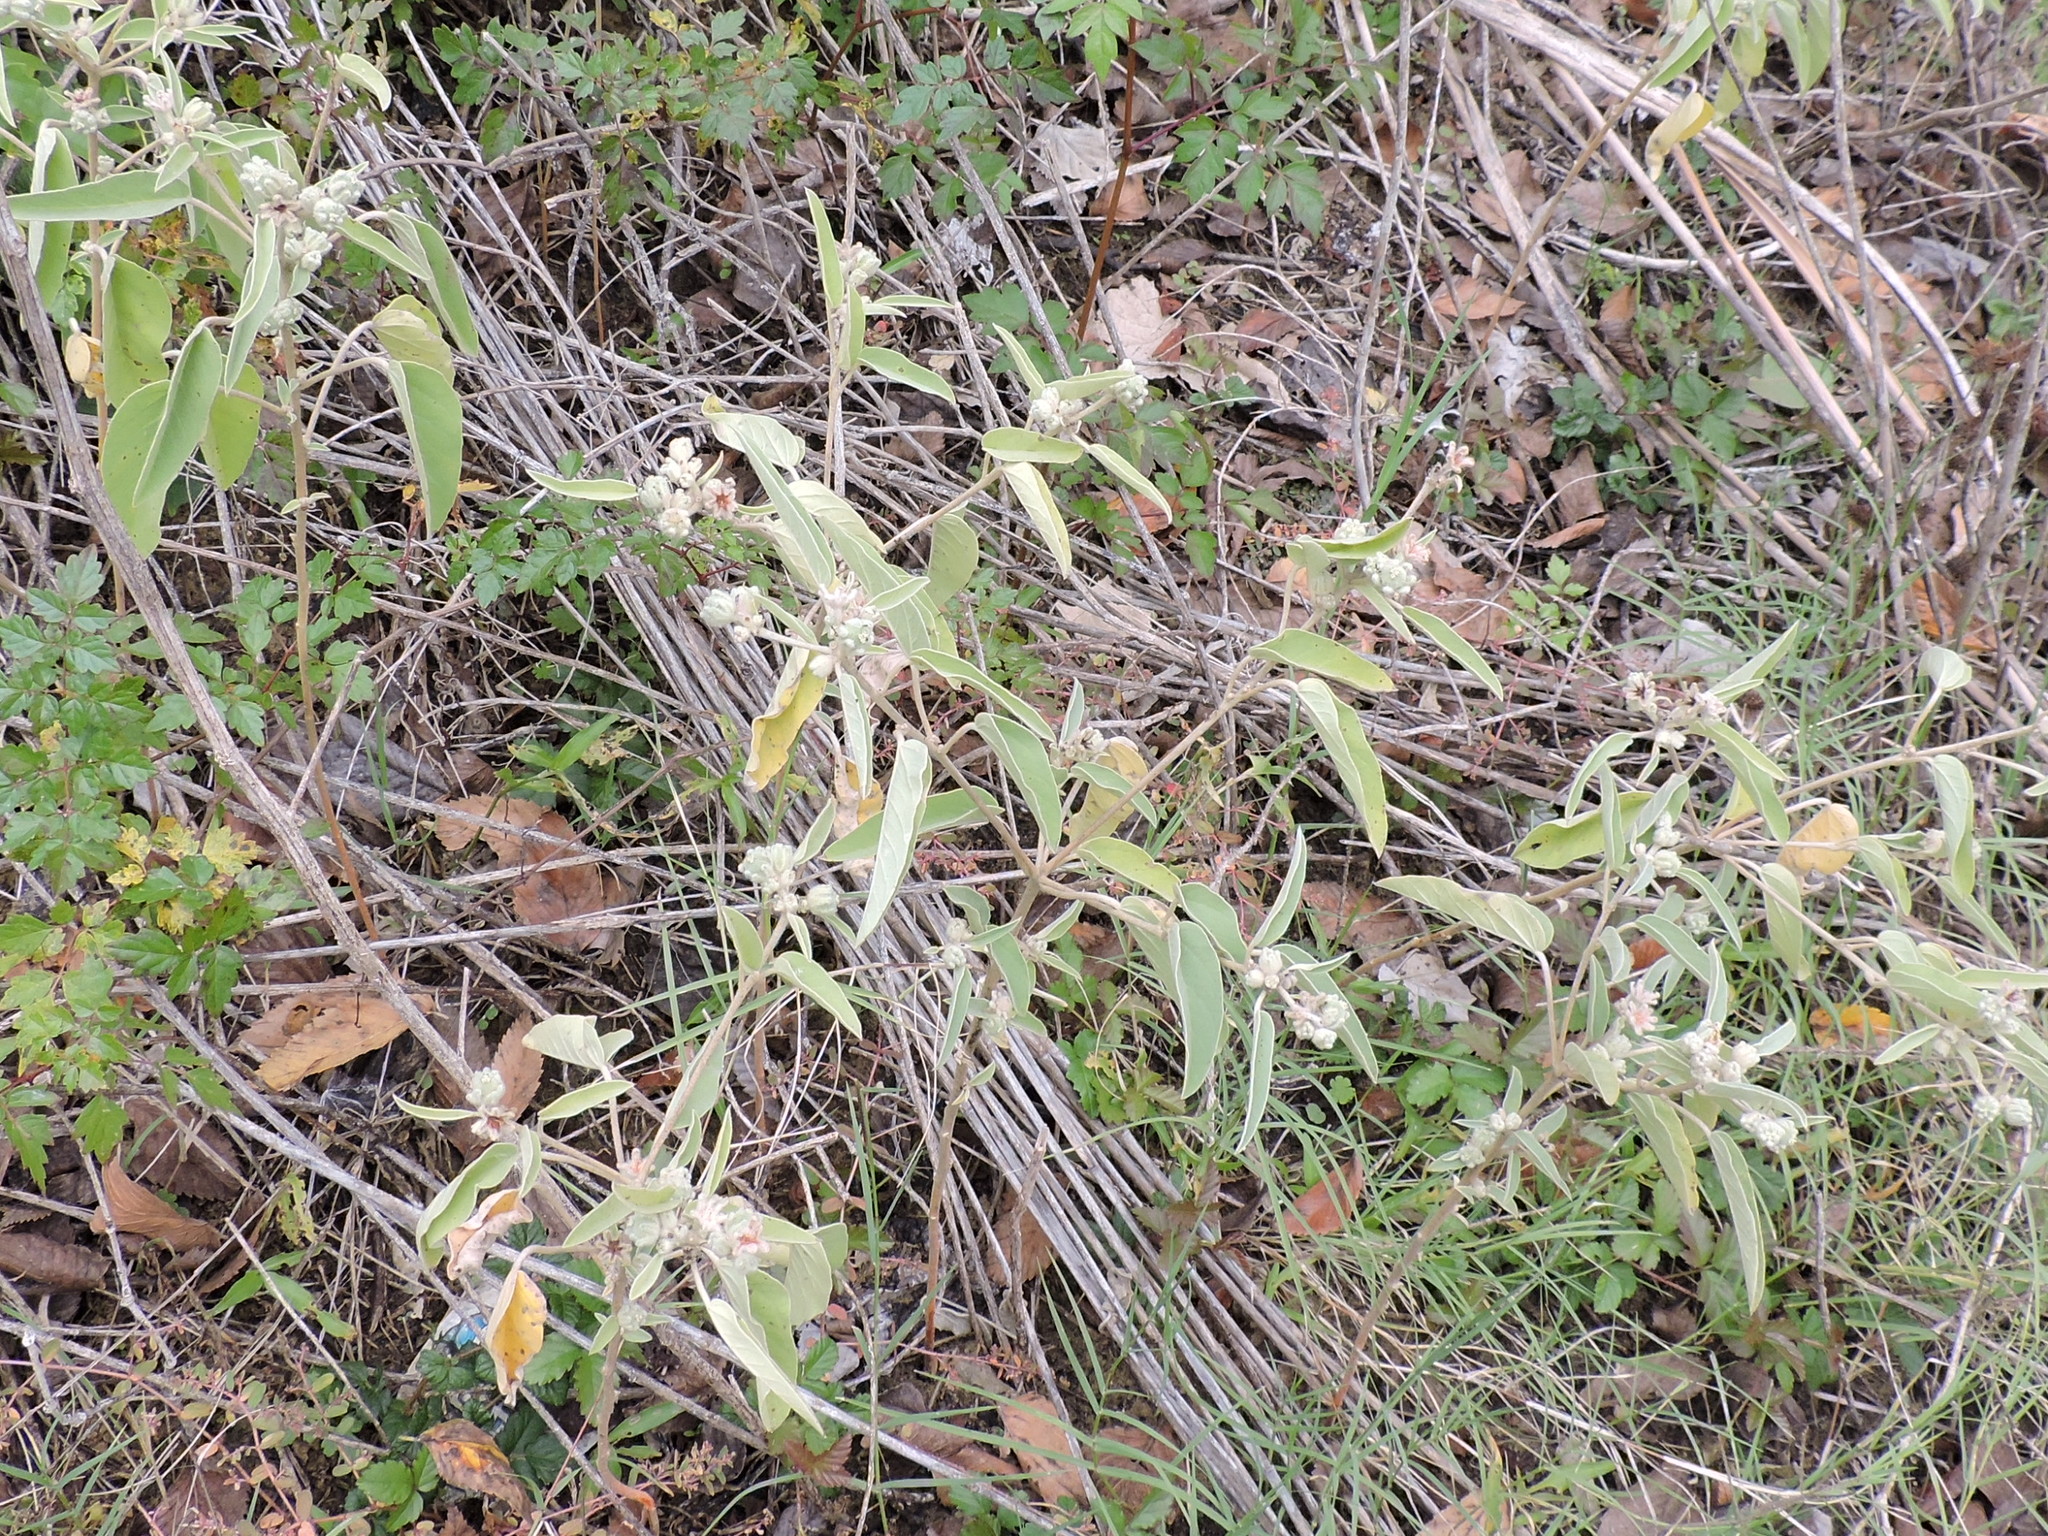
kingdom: Plantae
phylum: Tracheophyta
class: Magnoliopsida
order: Malpighiales
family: Euphorbiaceae
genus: Croton
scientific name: Croton lindheimeri
